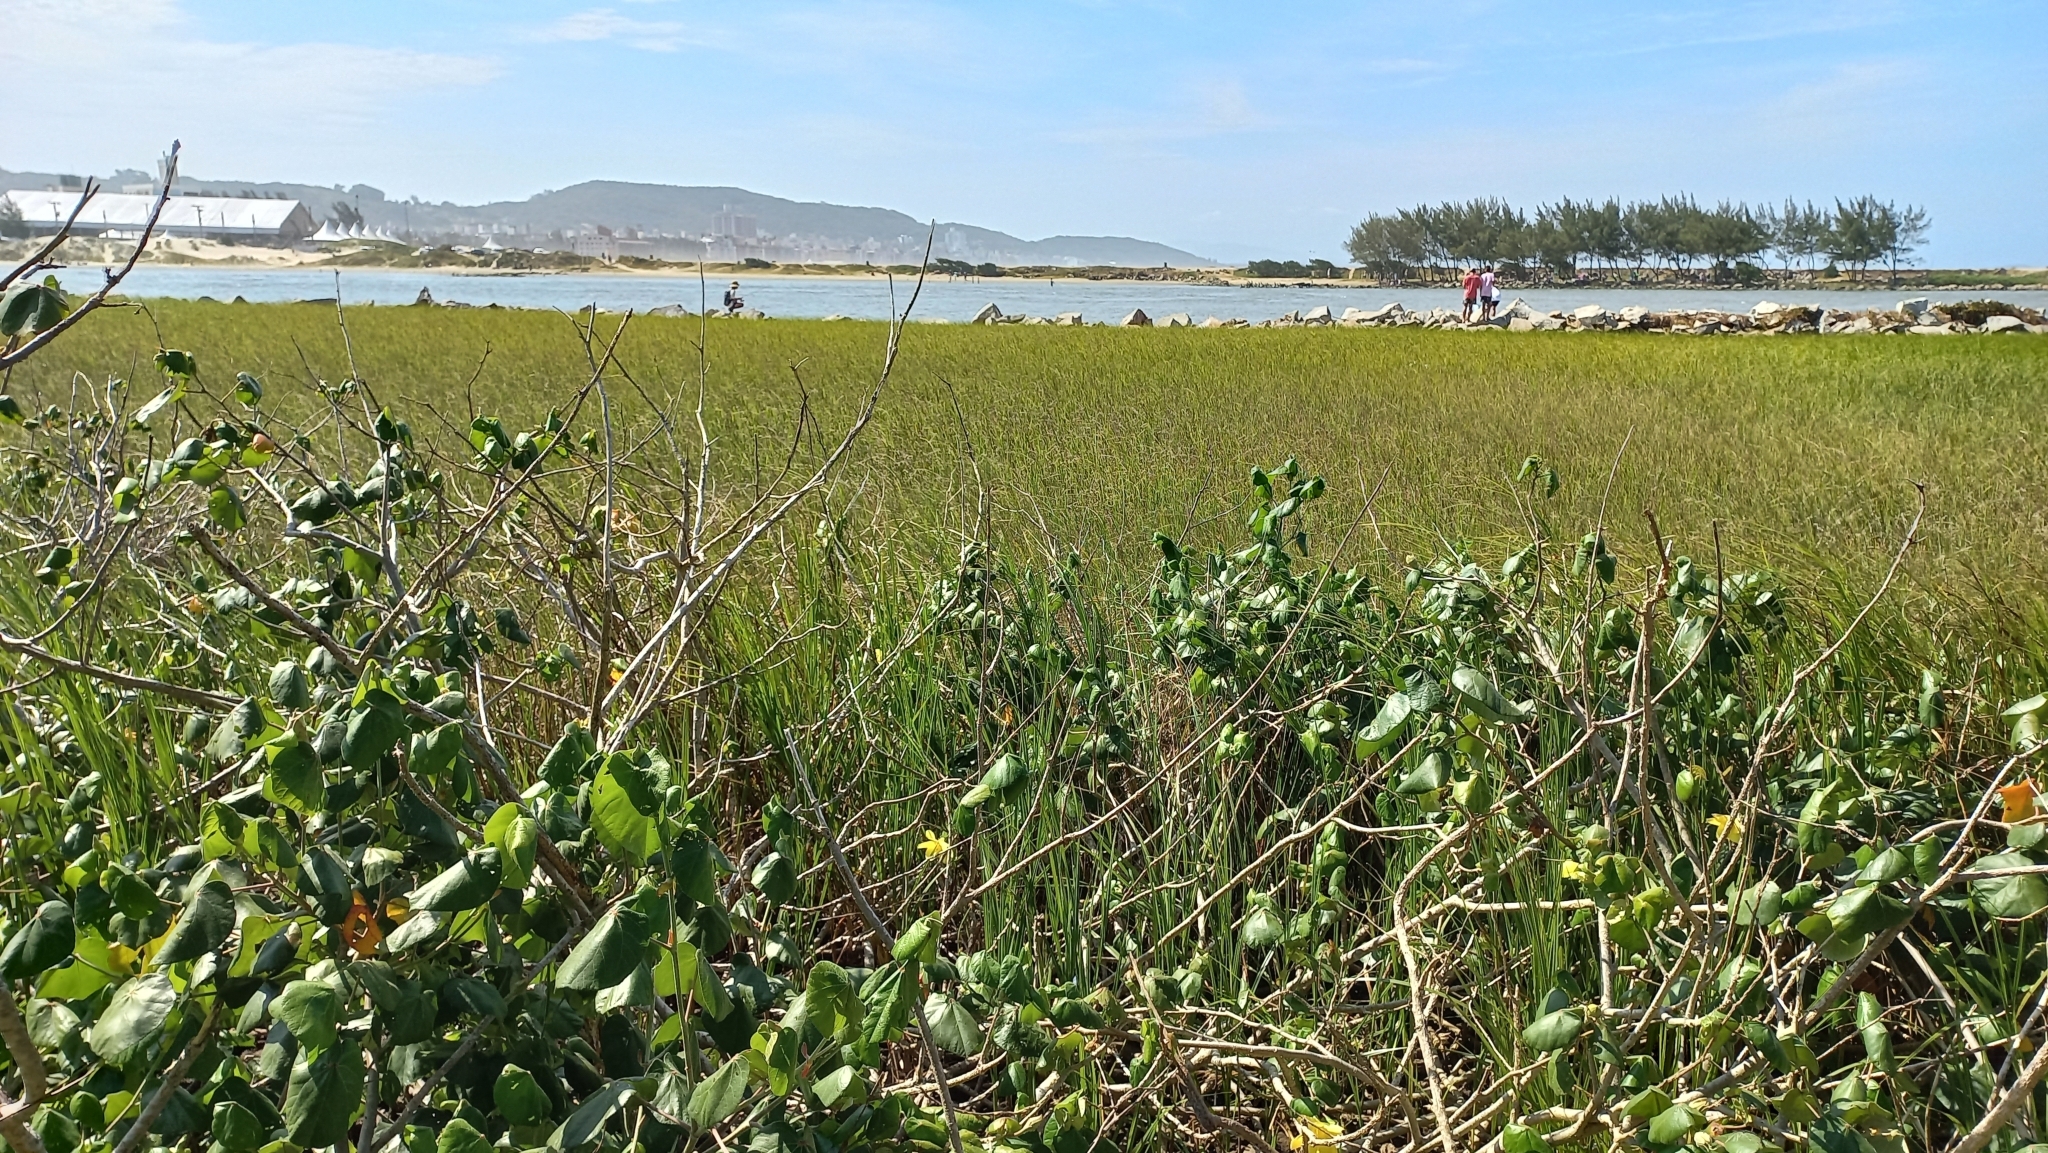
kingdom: Plantae
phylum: Tracheophyta
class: Magnoliopsida
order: Malvales
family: Malvaceae
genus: Talipariti
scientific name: Talipariti pernambucense
